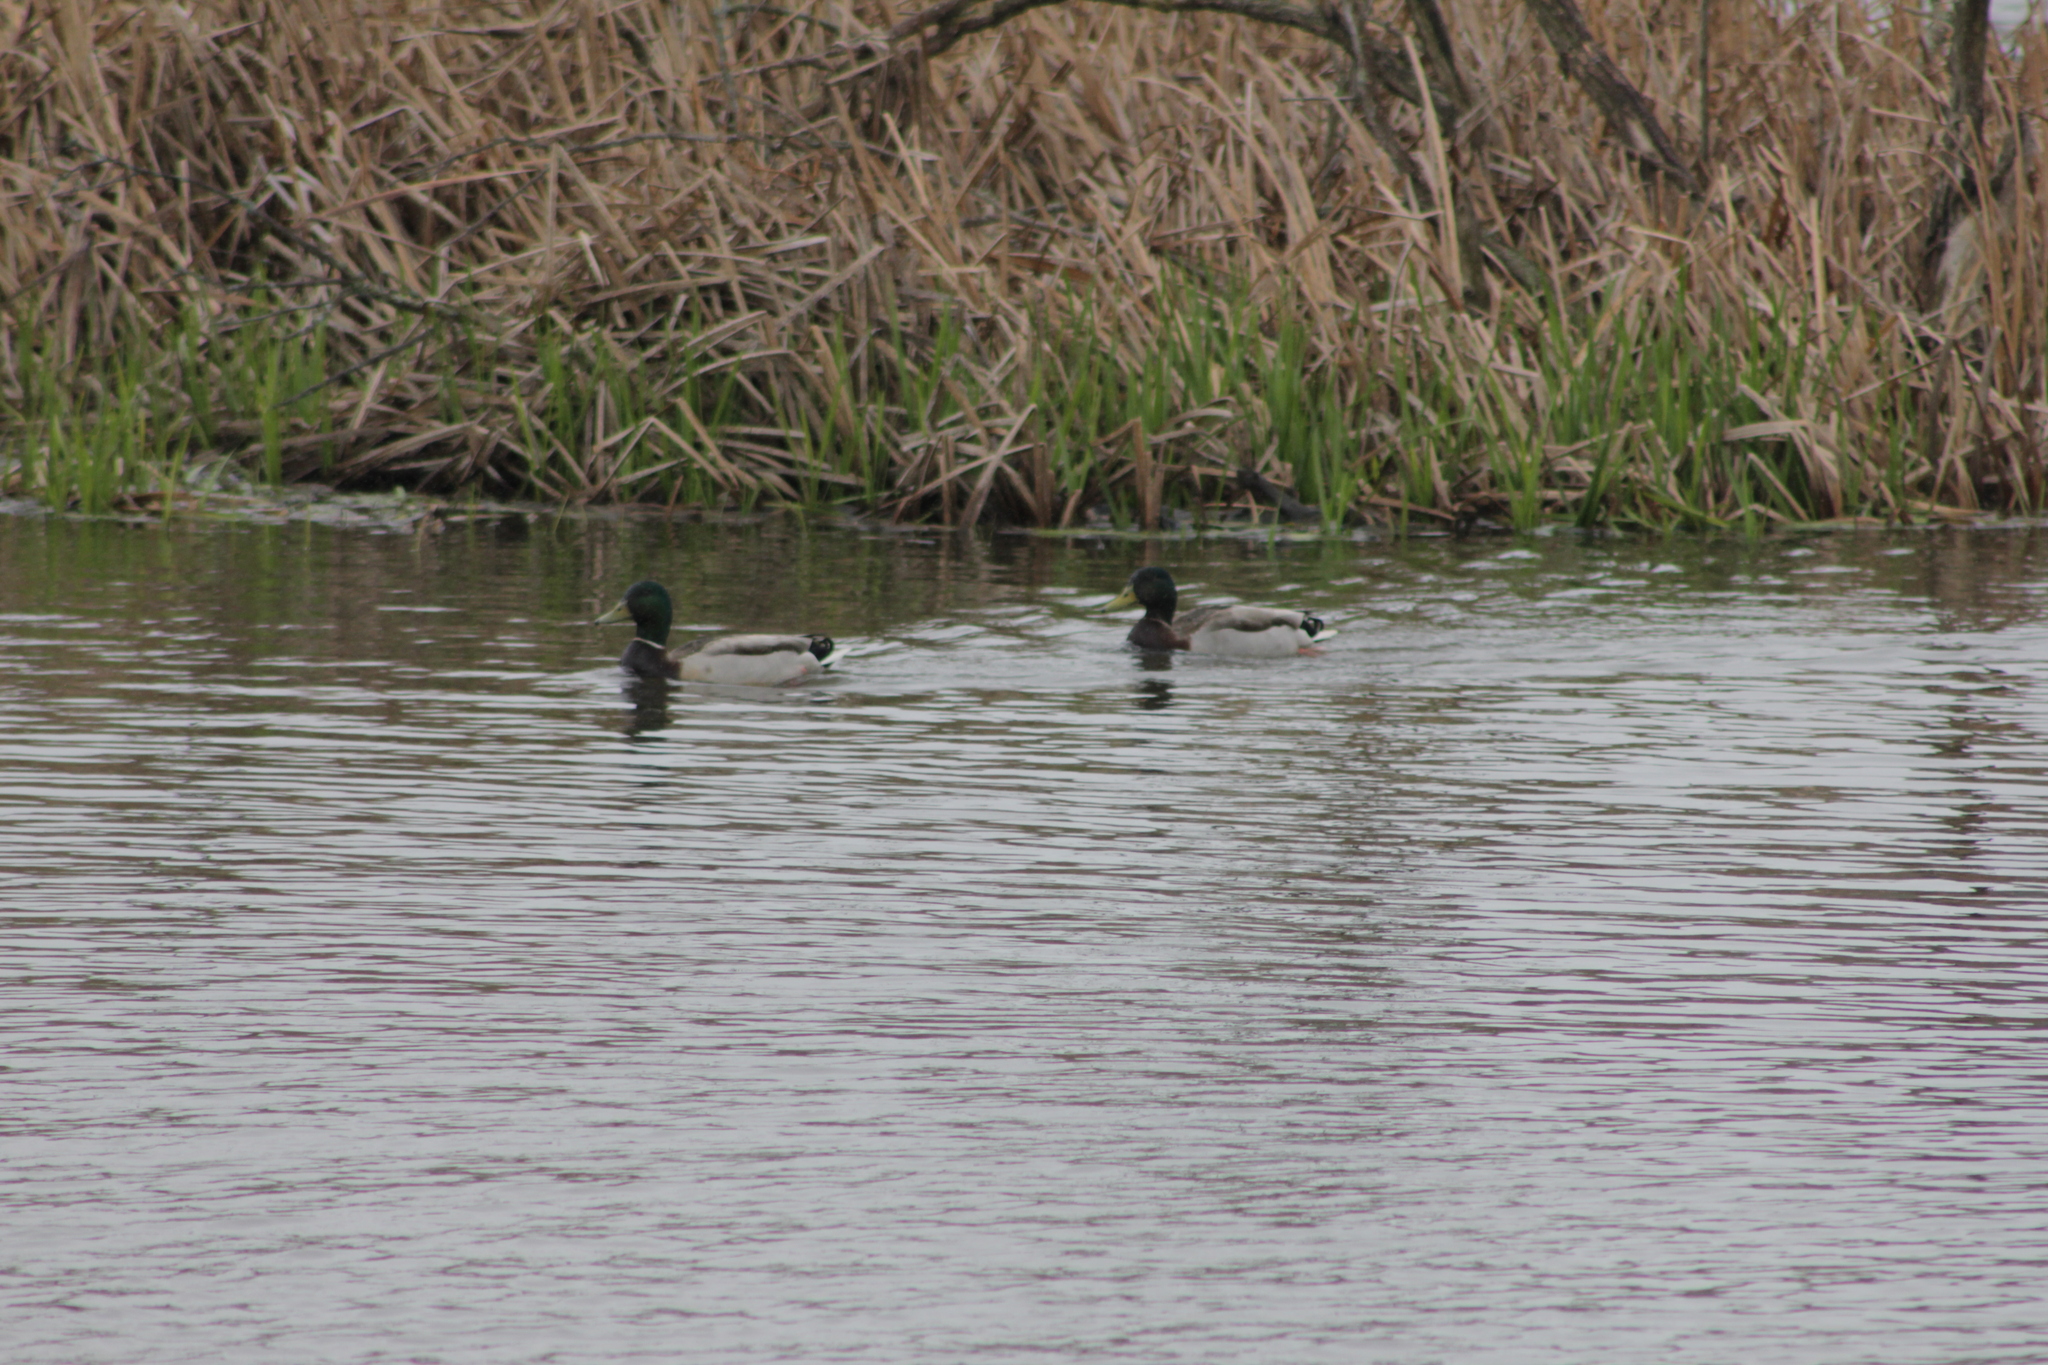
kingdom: Animalia
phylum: Chordata
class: Aves
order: Anseriformes
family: Anatidae
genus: Anas
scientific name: Anas platyrhynchos
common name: Mallard
